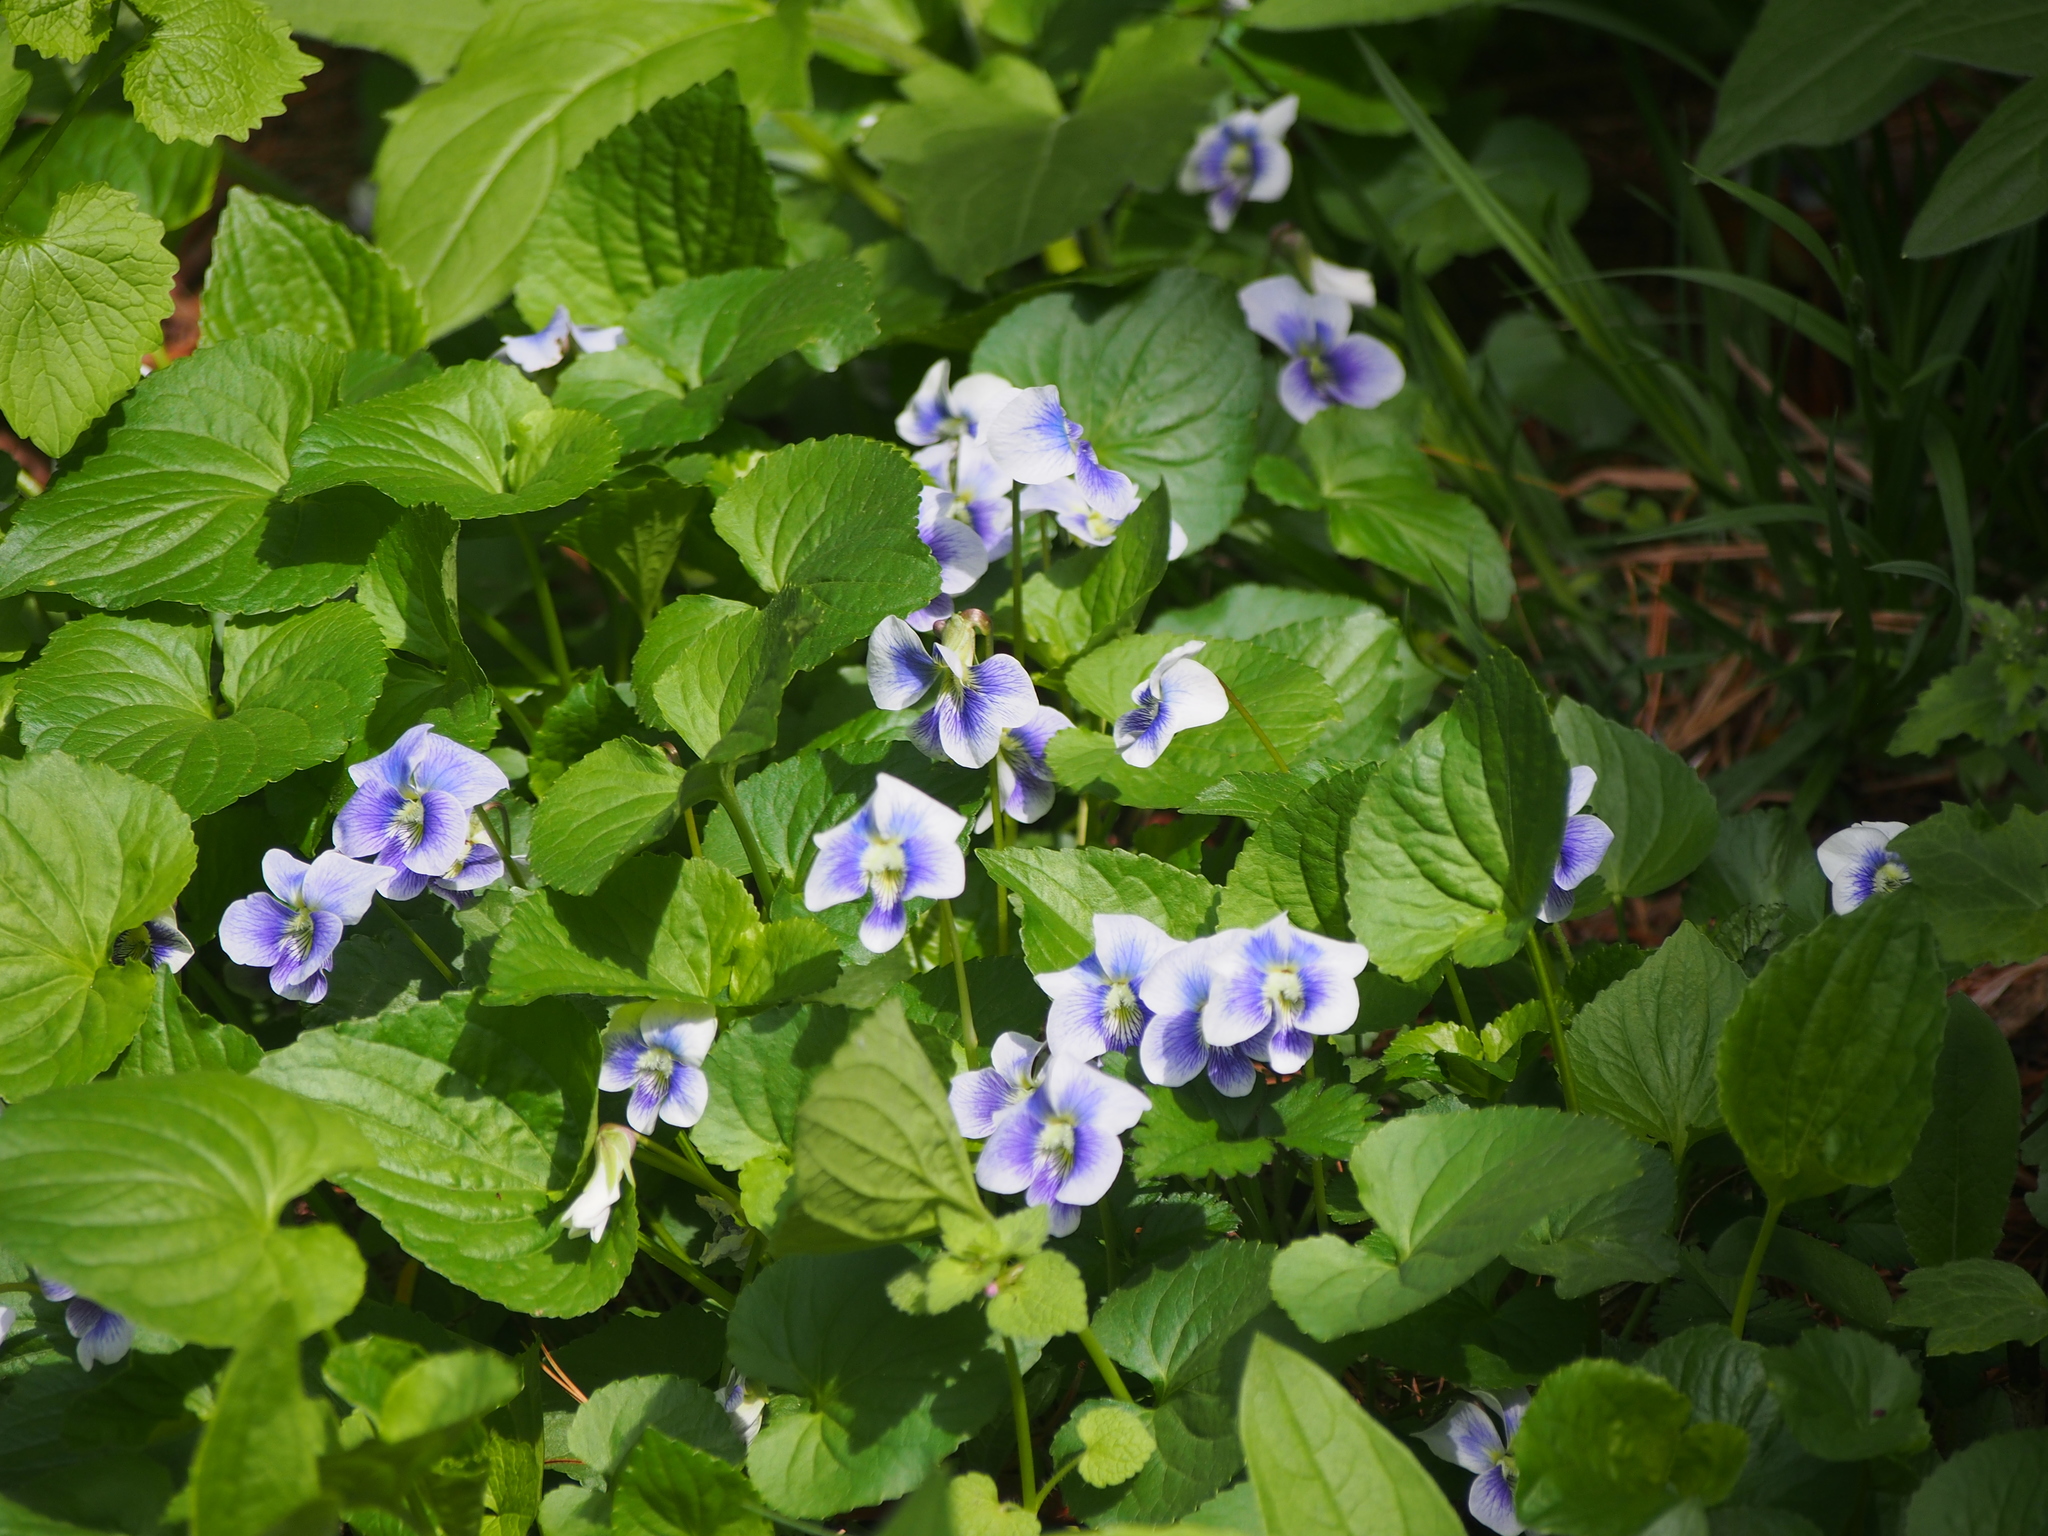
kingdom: Plantae
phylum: Tracheophyta
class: Magnoliopsida
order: Malpighiales
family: Violaceae
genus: Viola
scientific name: Viola sororia
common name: Dooryard violet
